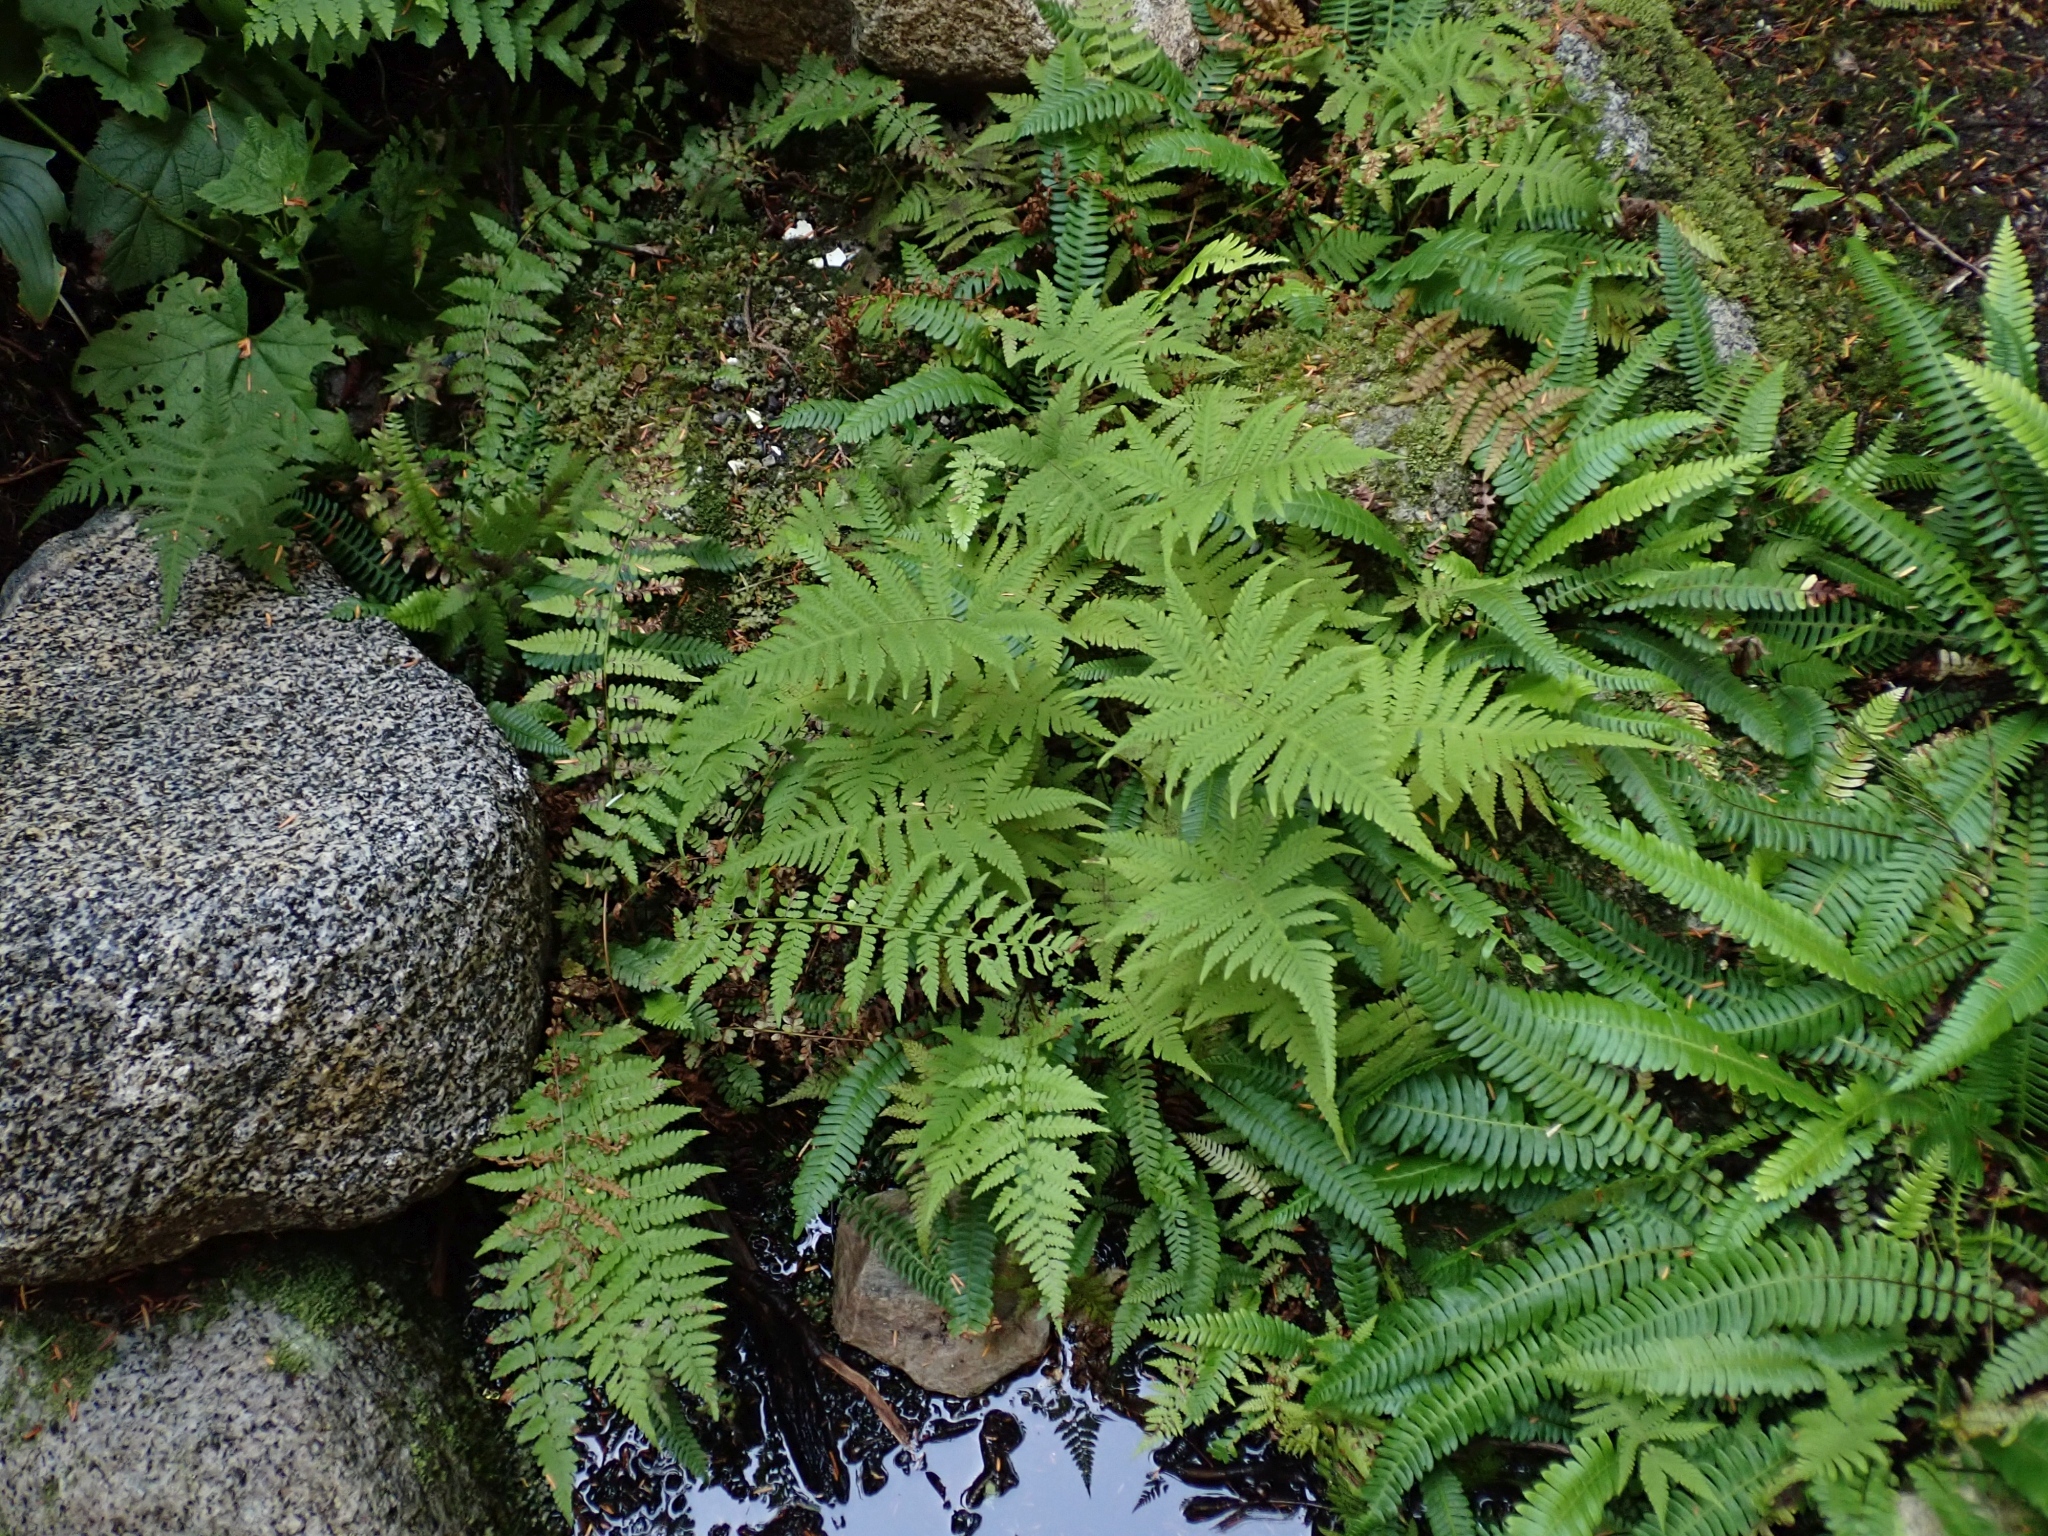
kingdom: Plantae
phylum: Tracheophyta
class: Polypodiopsida
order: Polypodiales
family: Thelypteridaceae
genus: Phegopteris
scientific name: Phegopteris connectilis
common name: Beech fern
